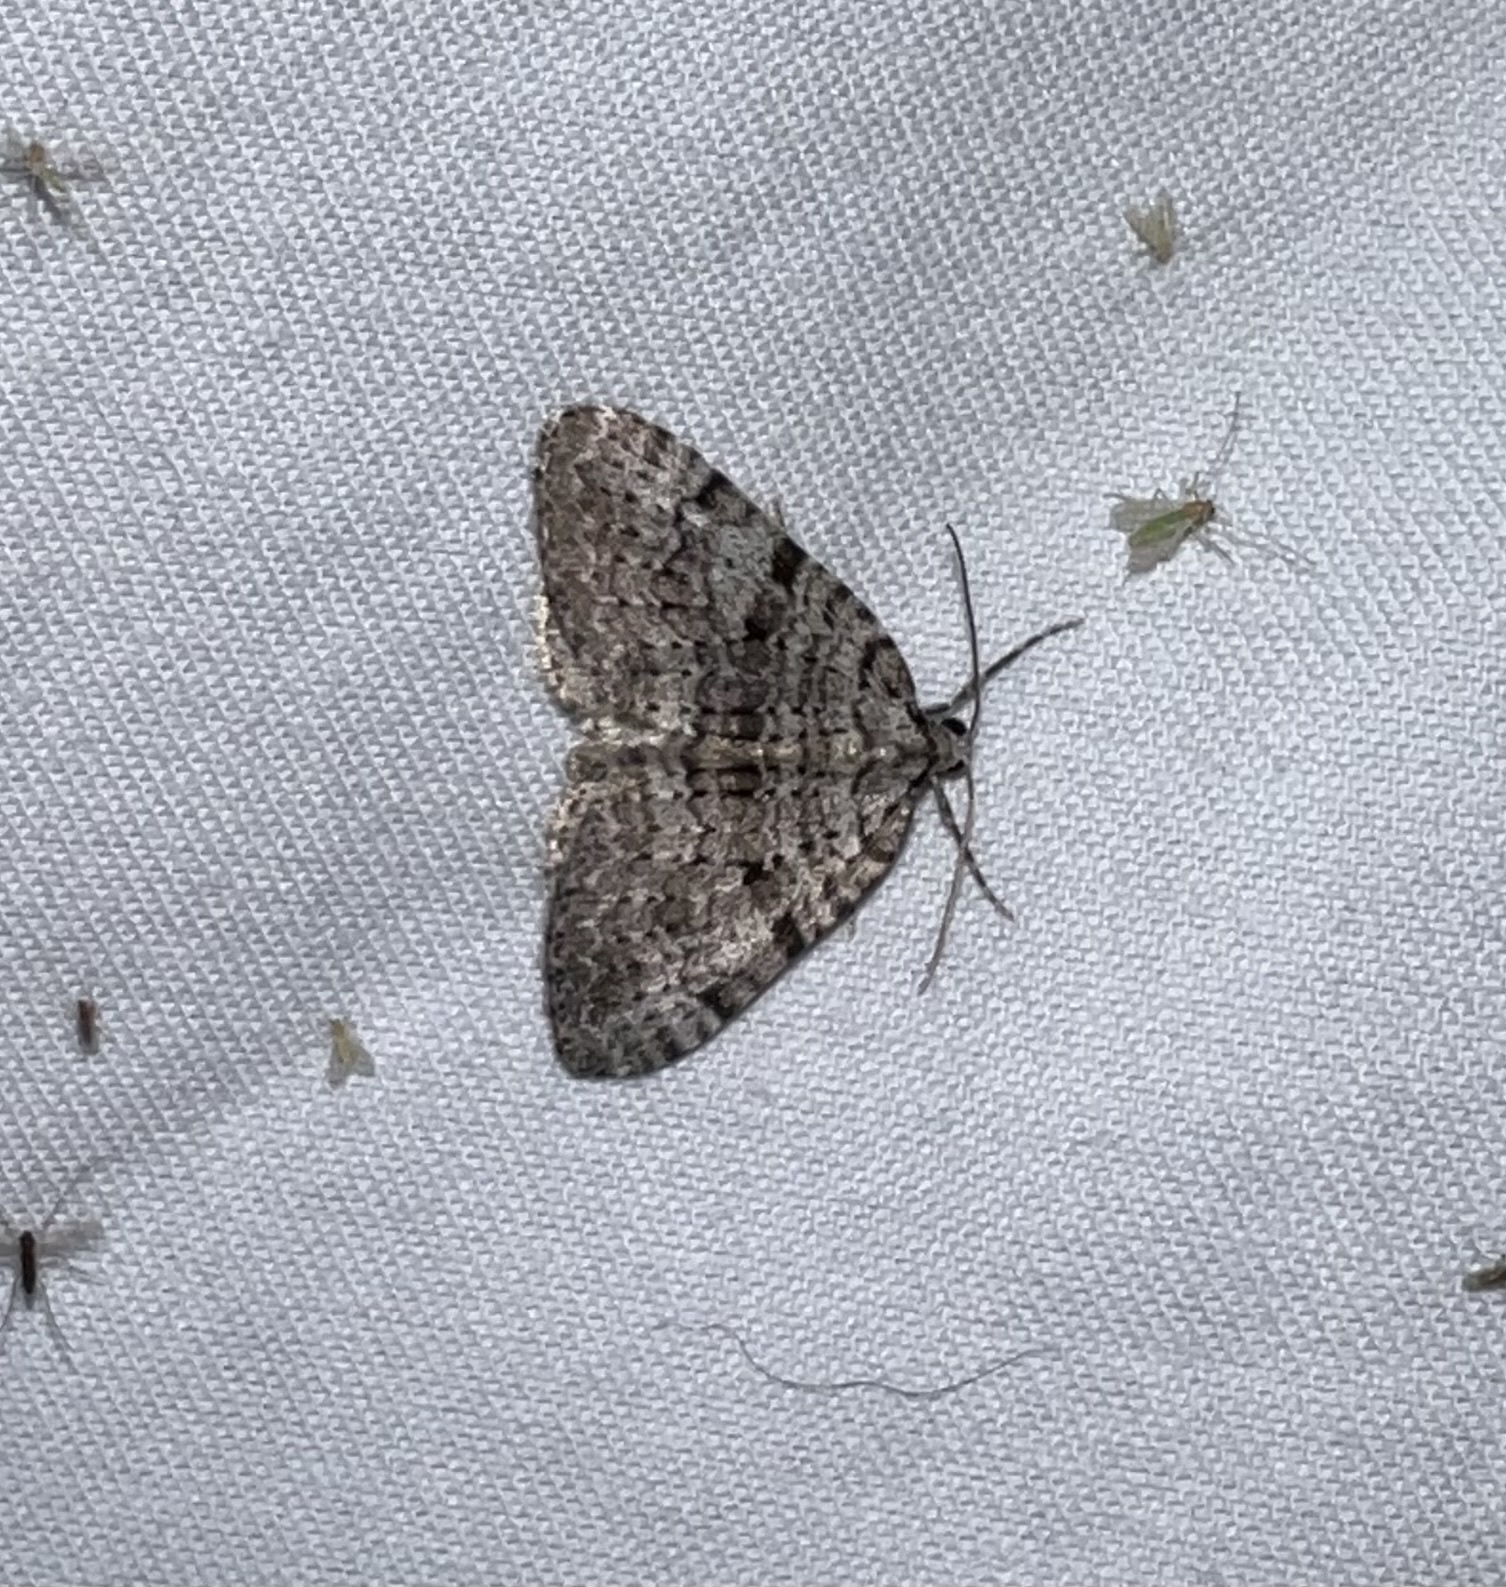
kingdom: Animalia
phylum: Arthropoda
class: Insecta
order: Lepidoptera
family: Geometridae
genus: Perizoma
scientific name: Perizoma curvilinea
